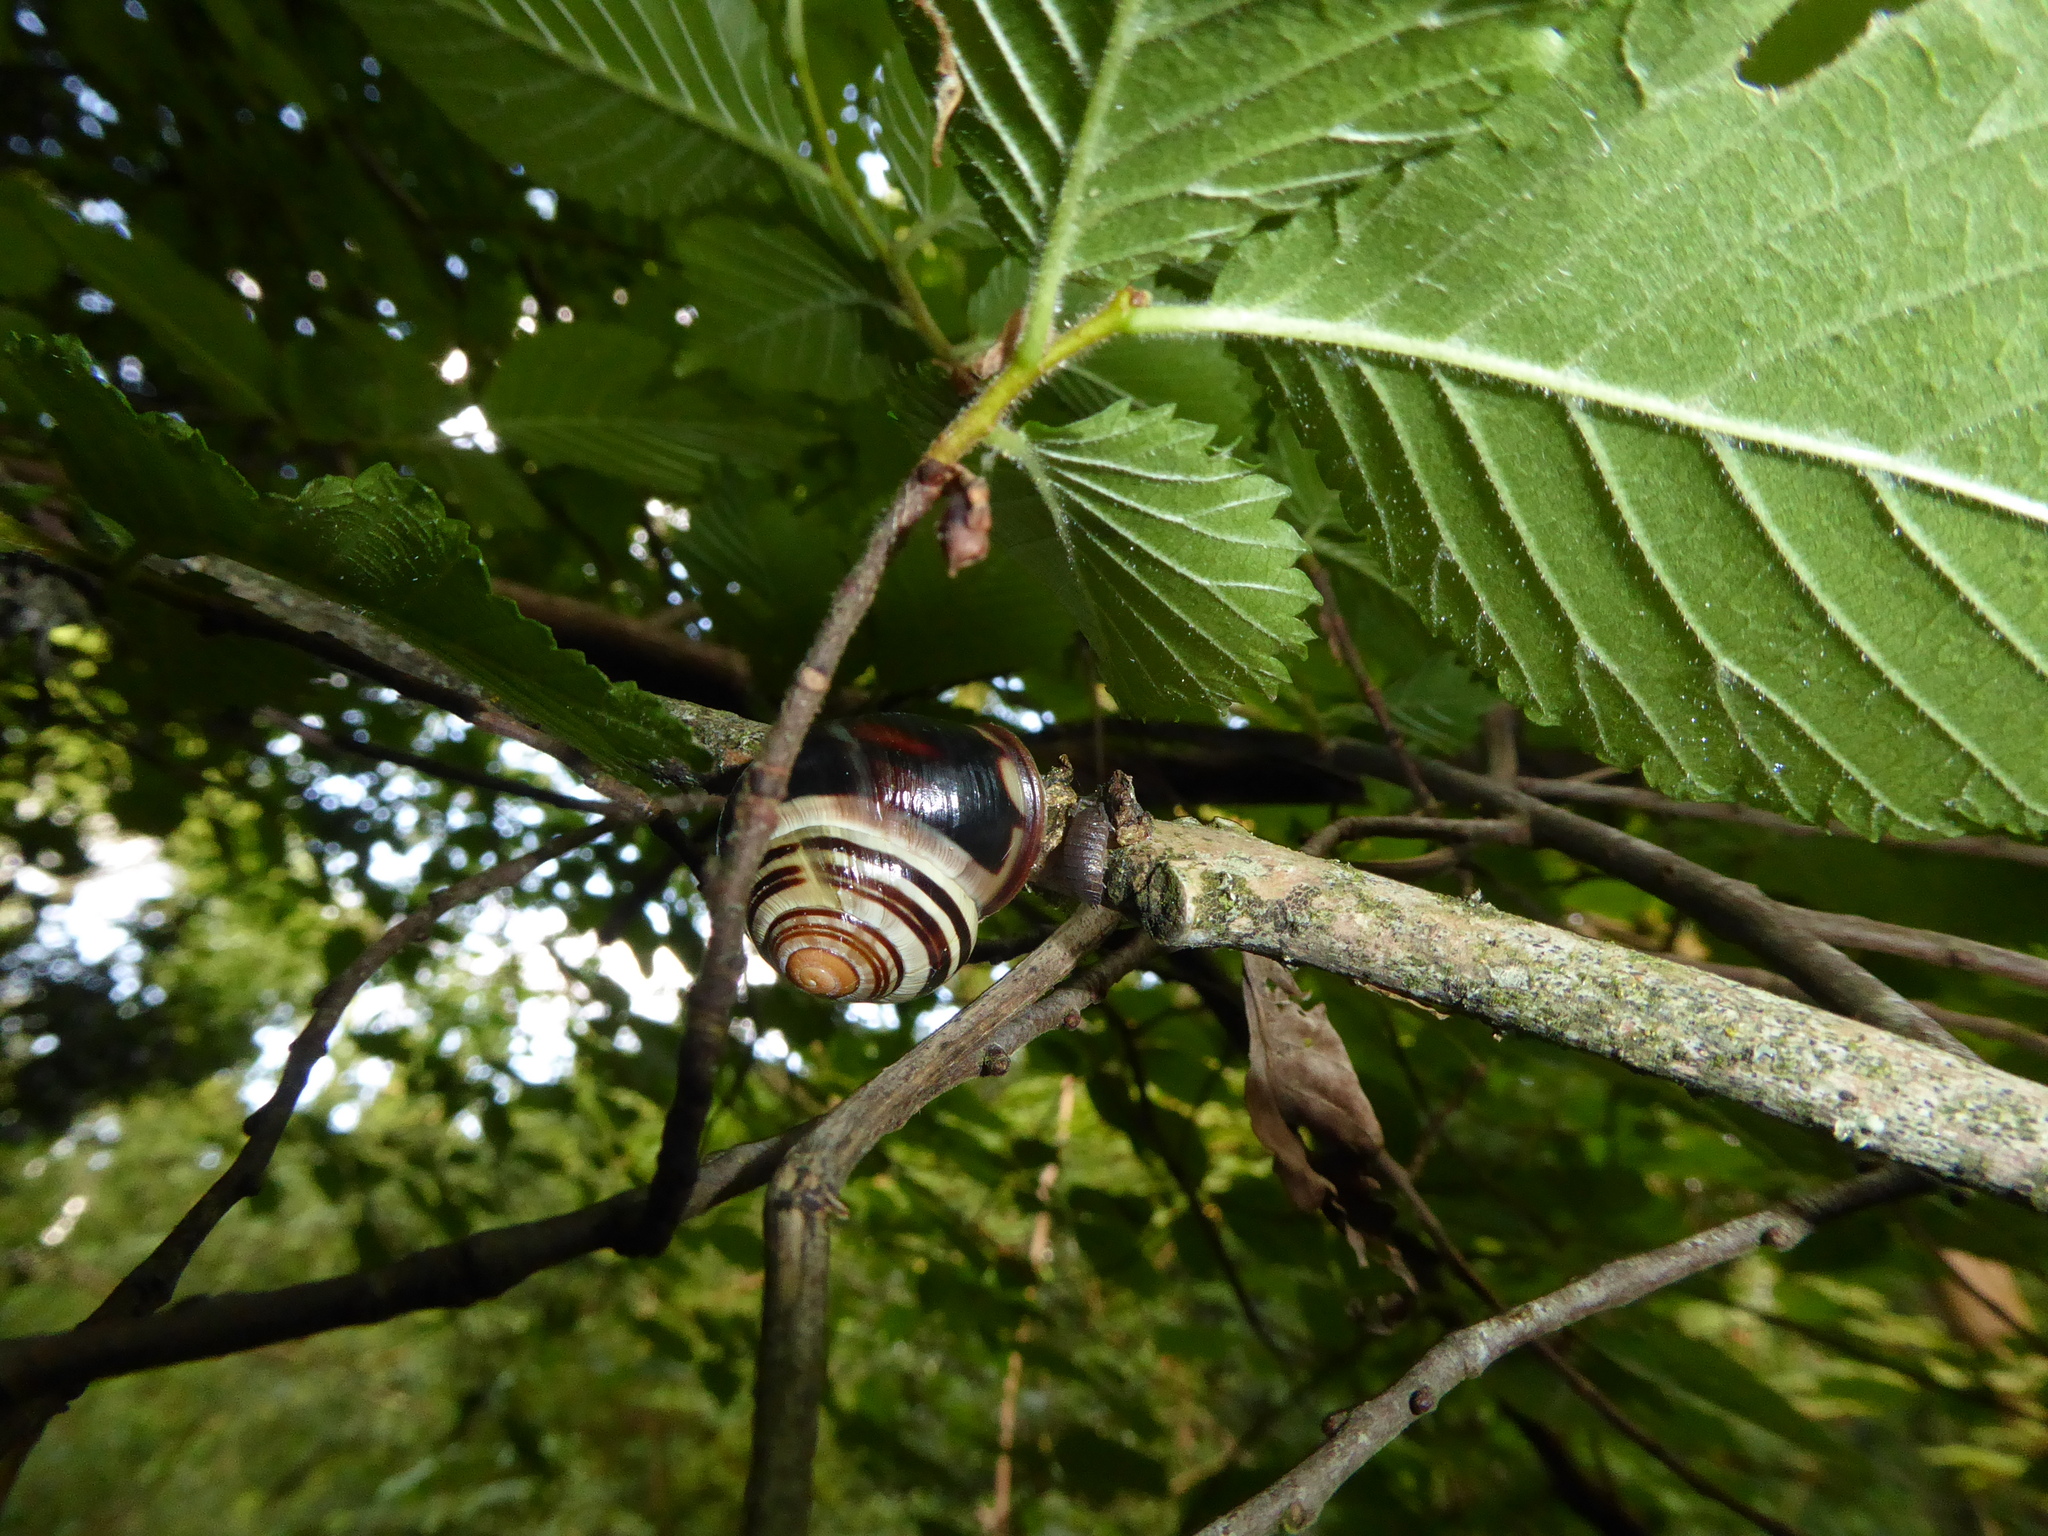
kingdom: Animalia
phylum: Mollusca
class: Gastropoda
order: Stylommatophora
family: Helicidae
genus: Cepaea
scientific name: Cepaea nemoralis
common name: Grovesnail
